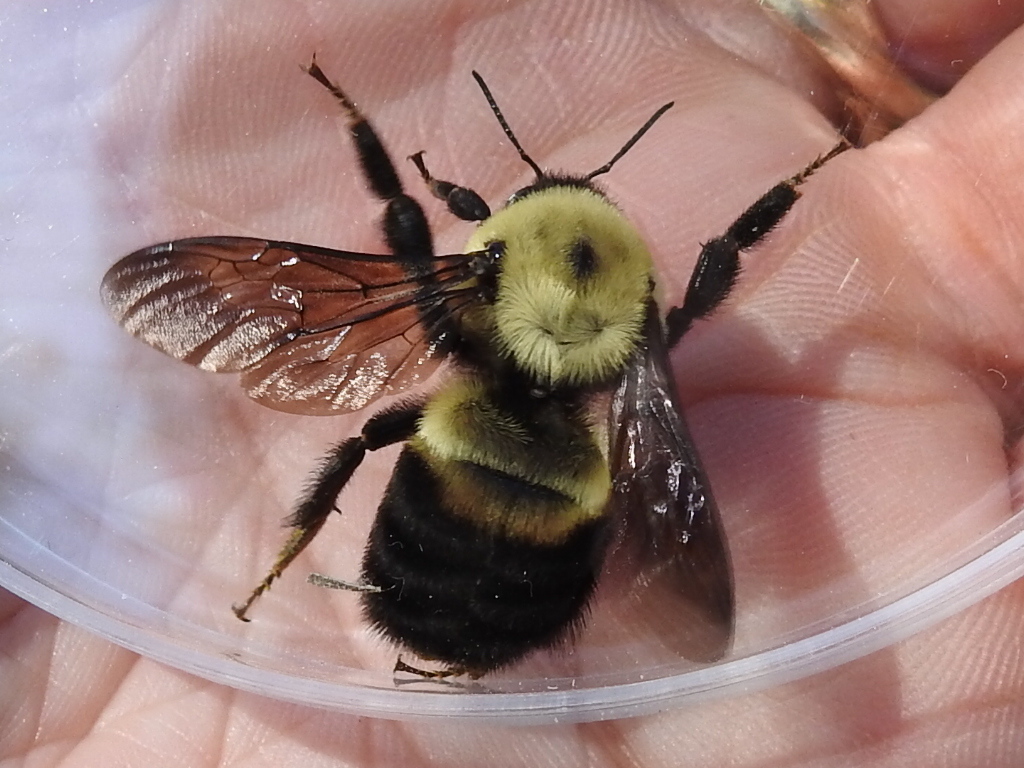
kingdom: Animalia
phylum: Arthropoda
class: Insecta
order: Hymenoptera
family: Apidae
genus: Bombus
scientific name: Bombus griseocollis
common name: Brown-belted bumble bee
